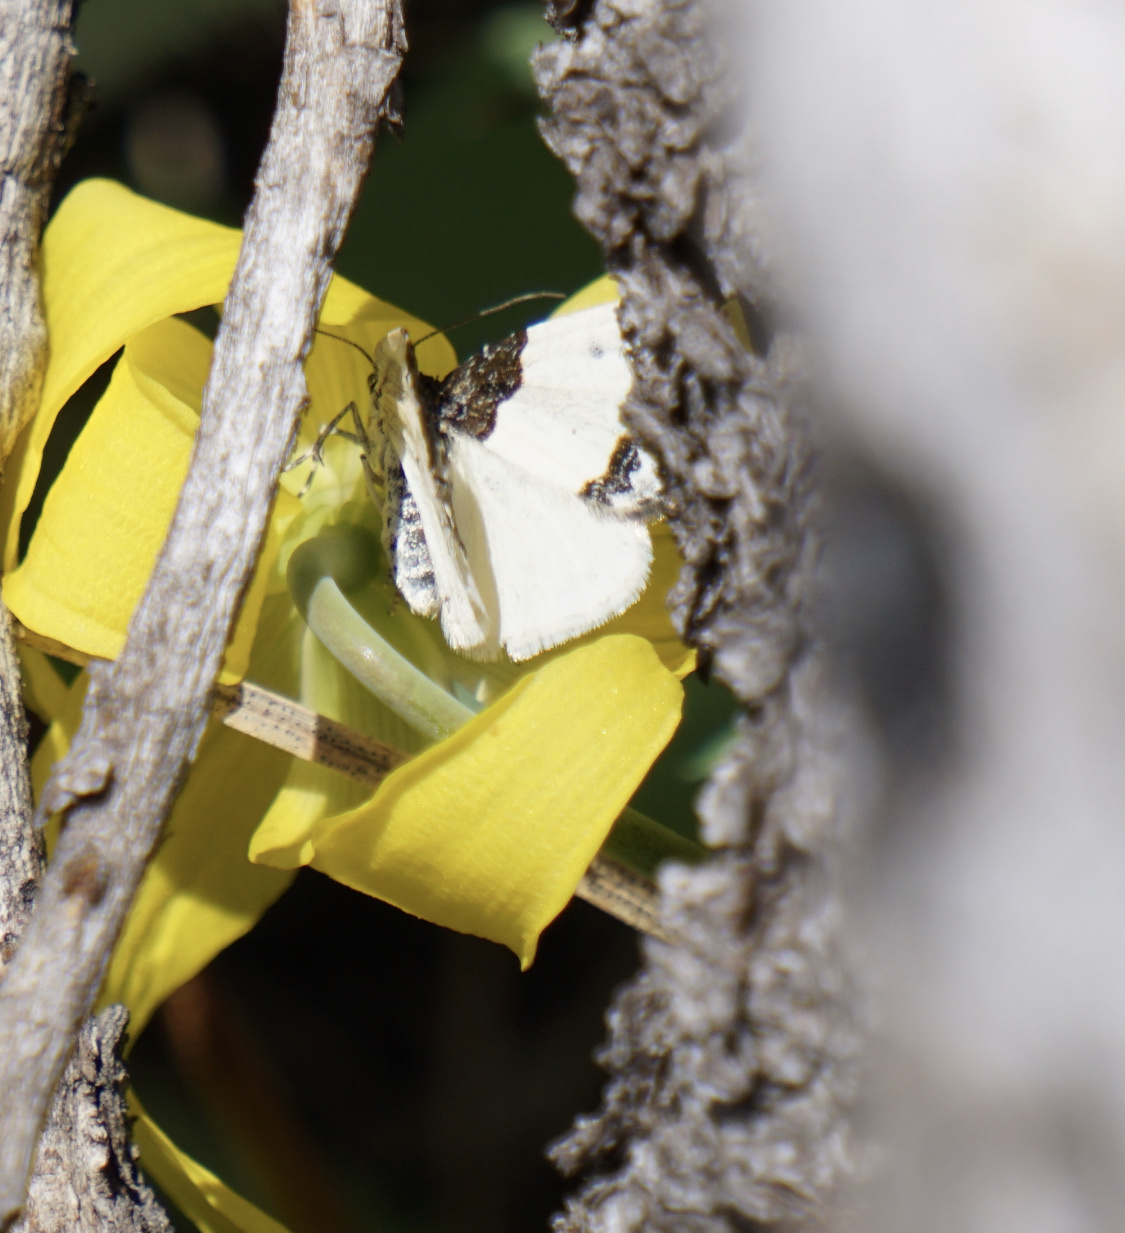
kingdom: Animalia
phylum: Arthropoda
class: Insecta
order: Lepidoptera
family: Geometridae
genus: Mesoleuca
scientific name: Mesoleuca ruficillata
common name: White-ribboned carpet moth
